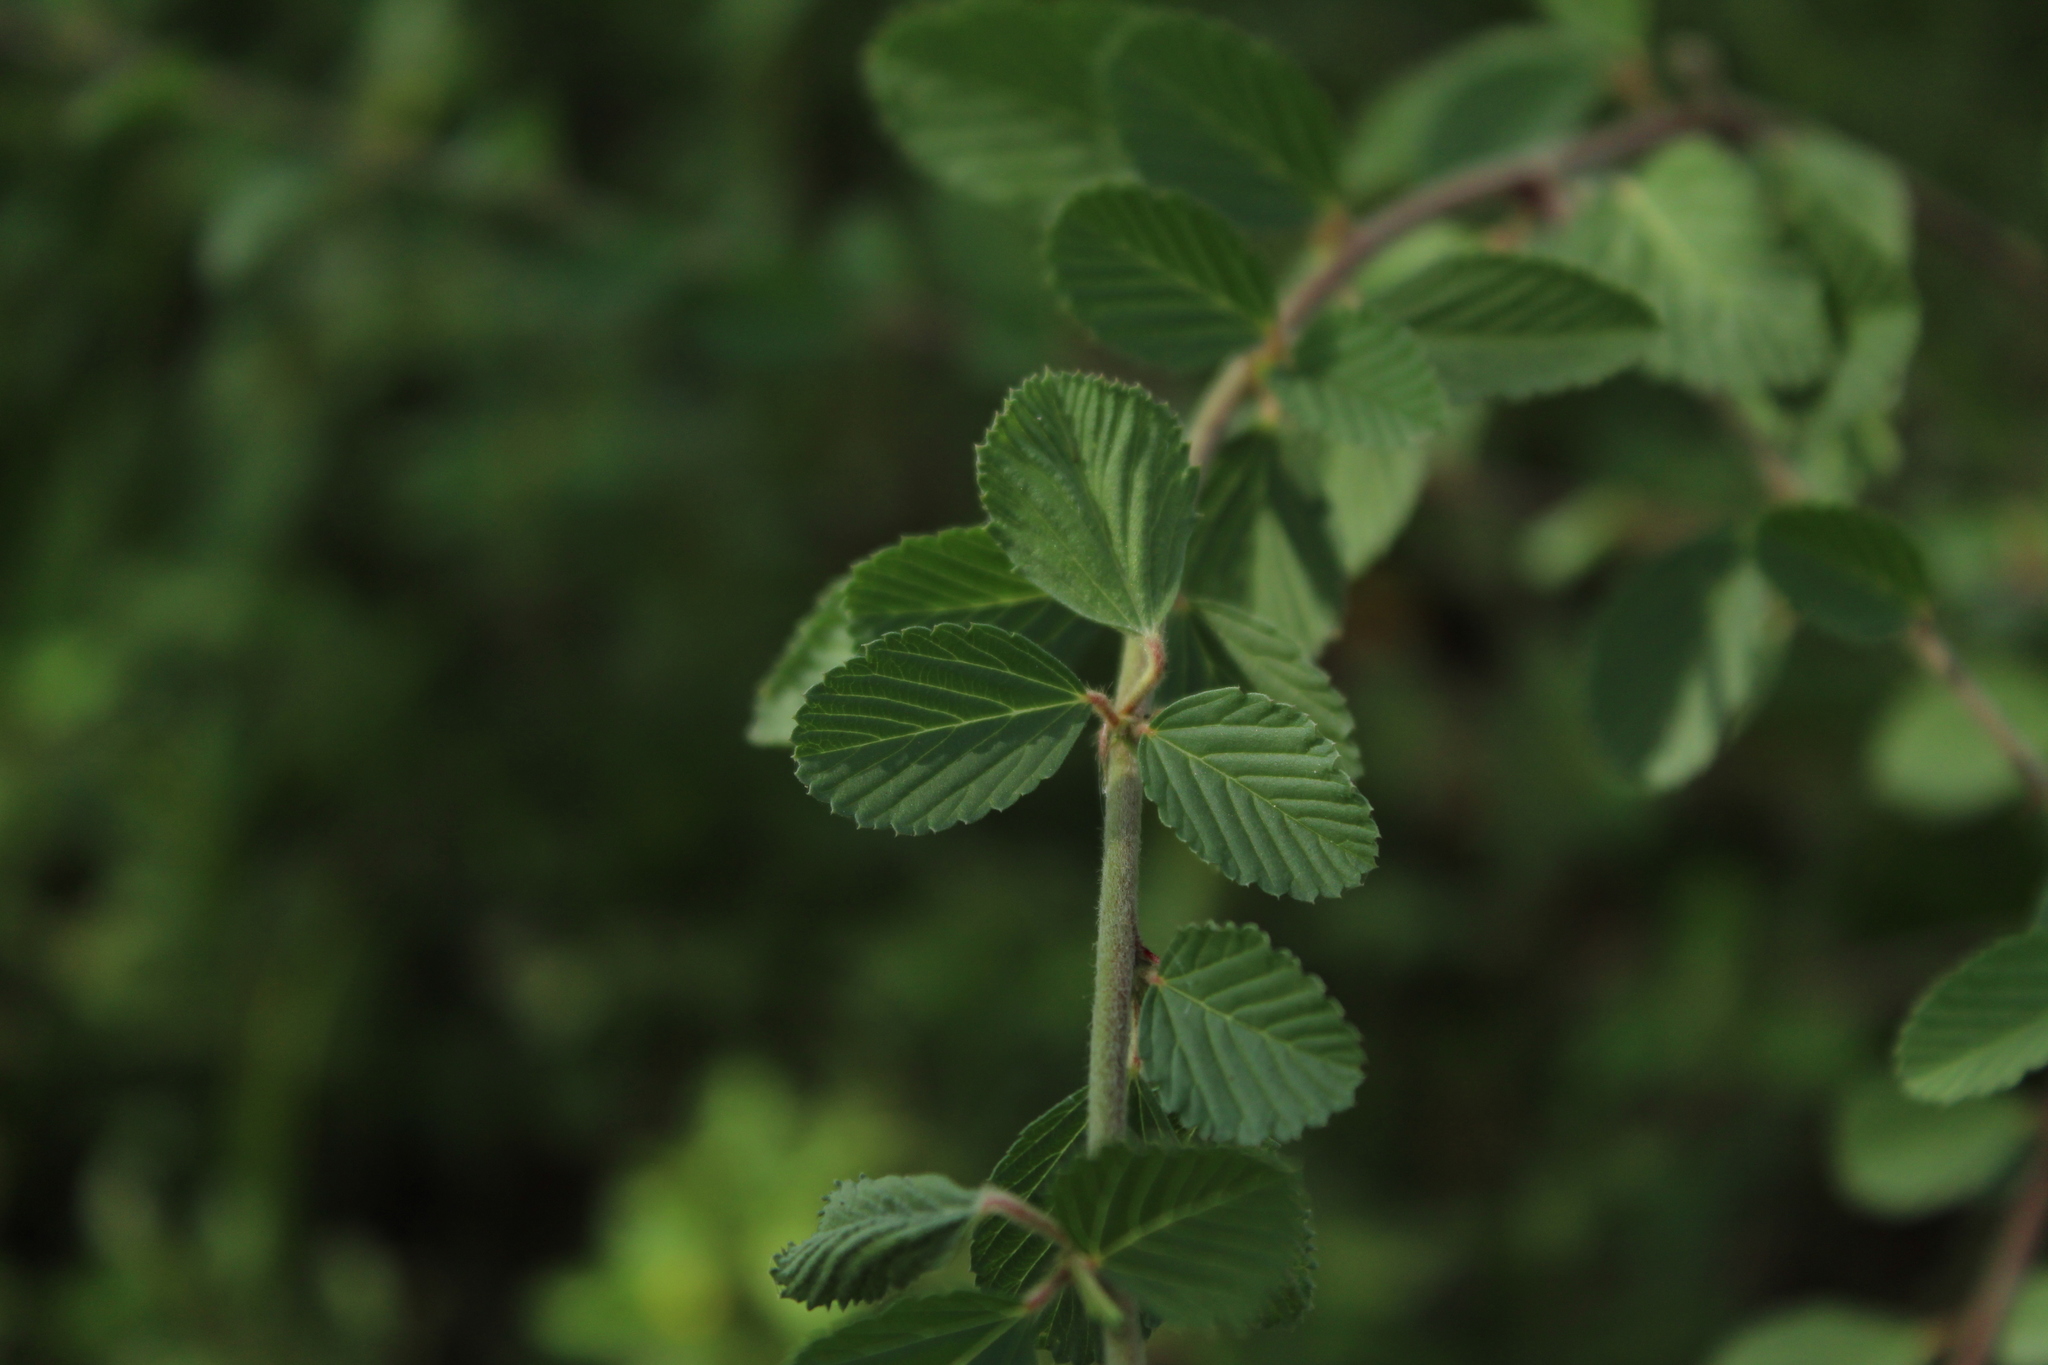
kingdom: Plantae
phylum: Tracheophyta
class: Magnoliopsida
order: Malvales
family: Malvaceae
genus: Melochia
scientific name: Melochia parvifolia
